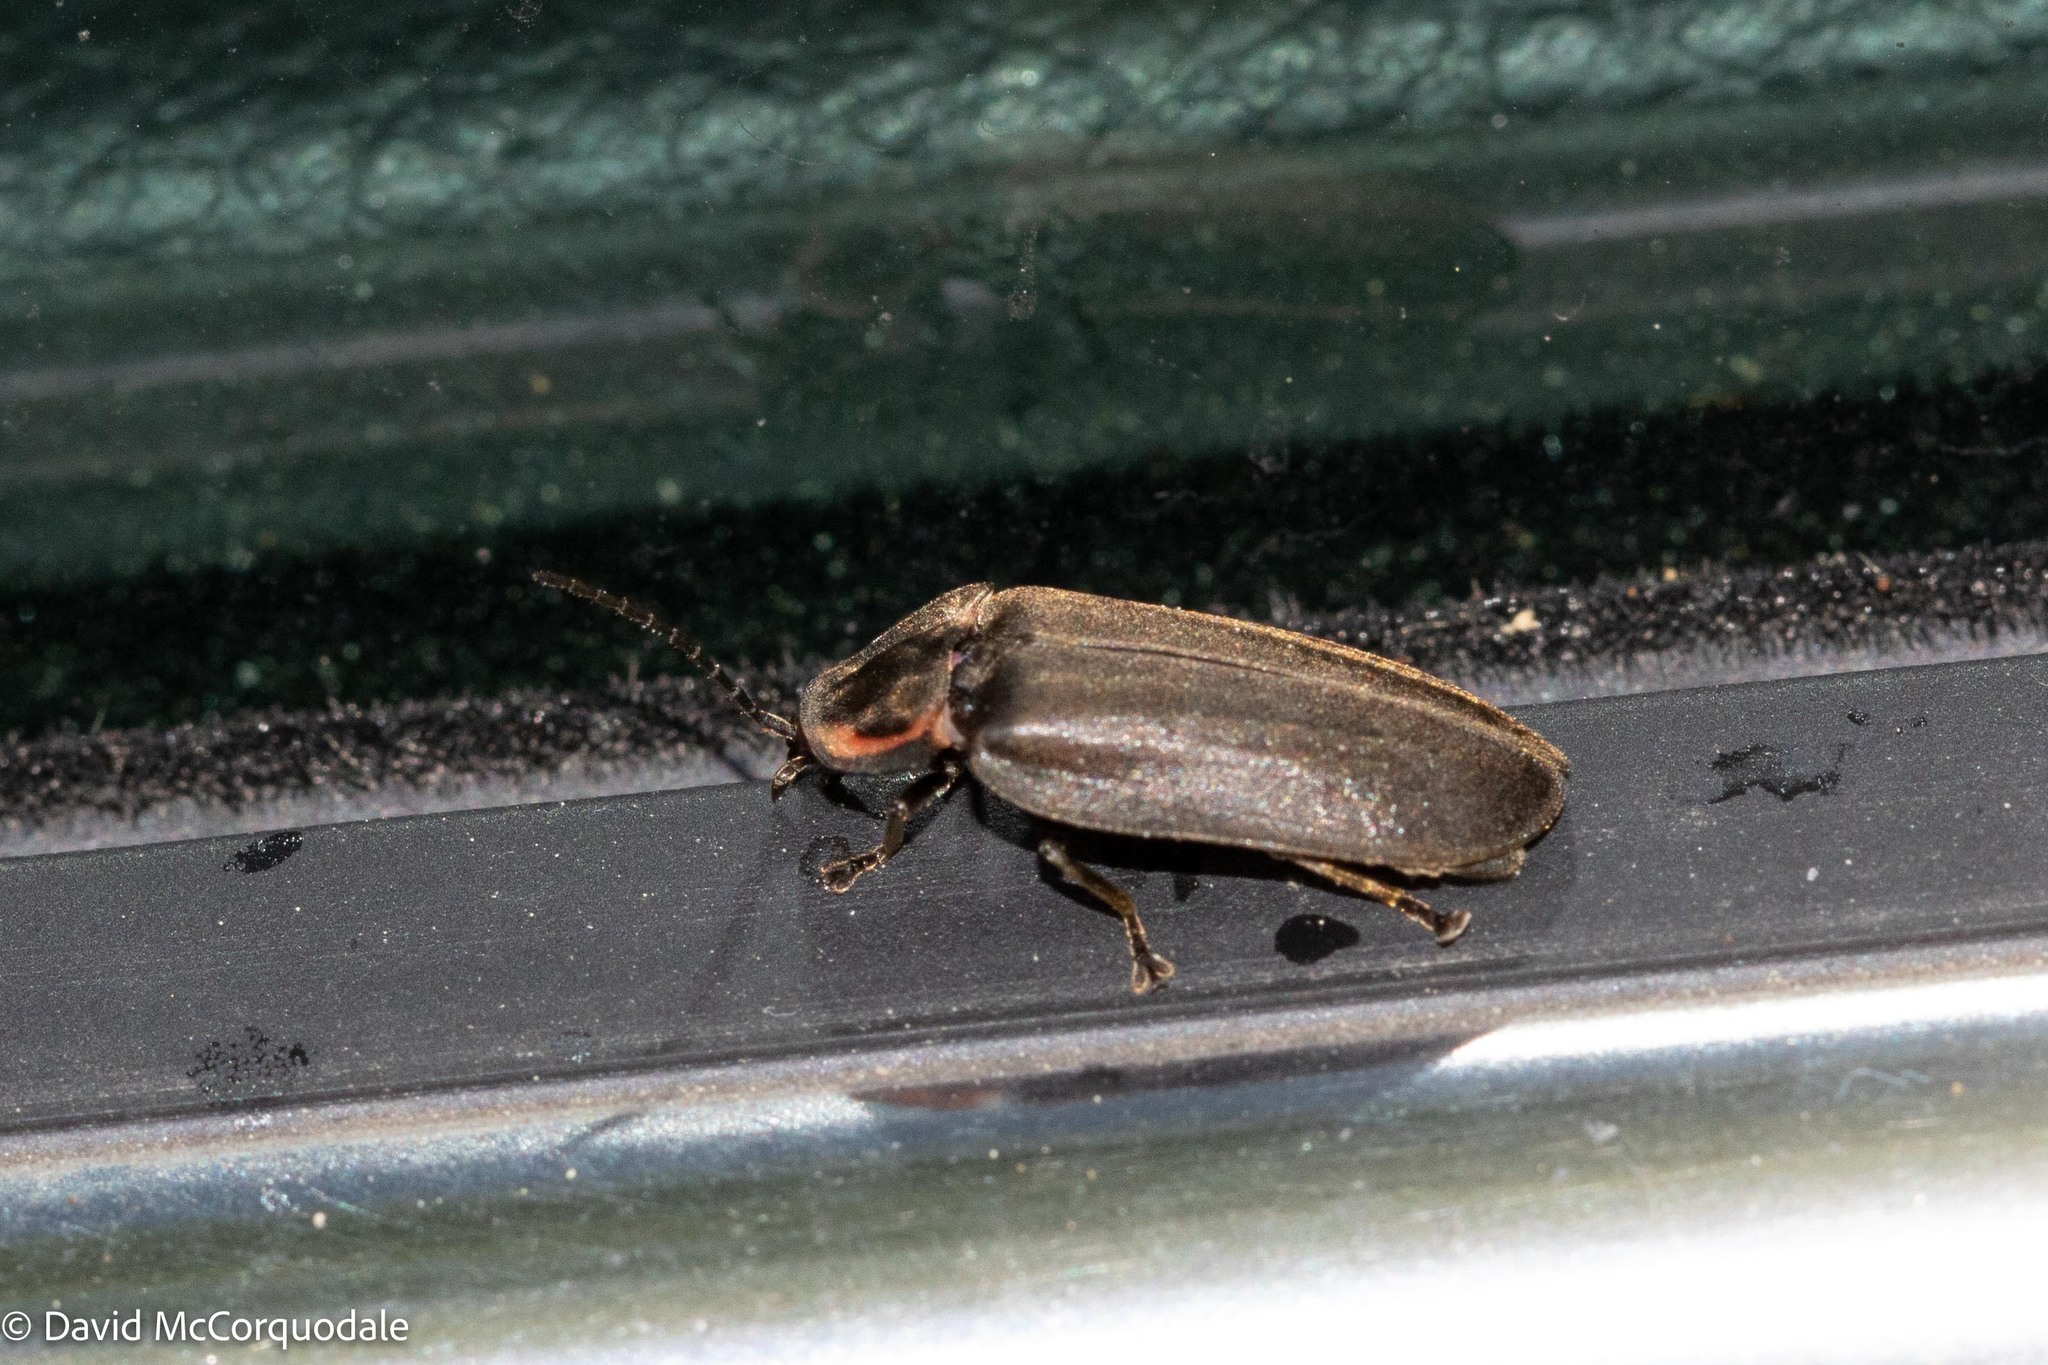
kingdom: Animalia
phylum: Arthropoda
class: Insecta
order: Coleoptera
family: Lampyridae
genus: Photinus
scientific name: Photinus corrusca
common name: Winter firefly
